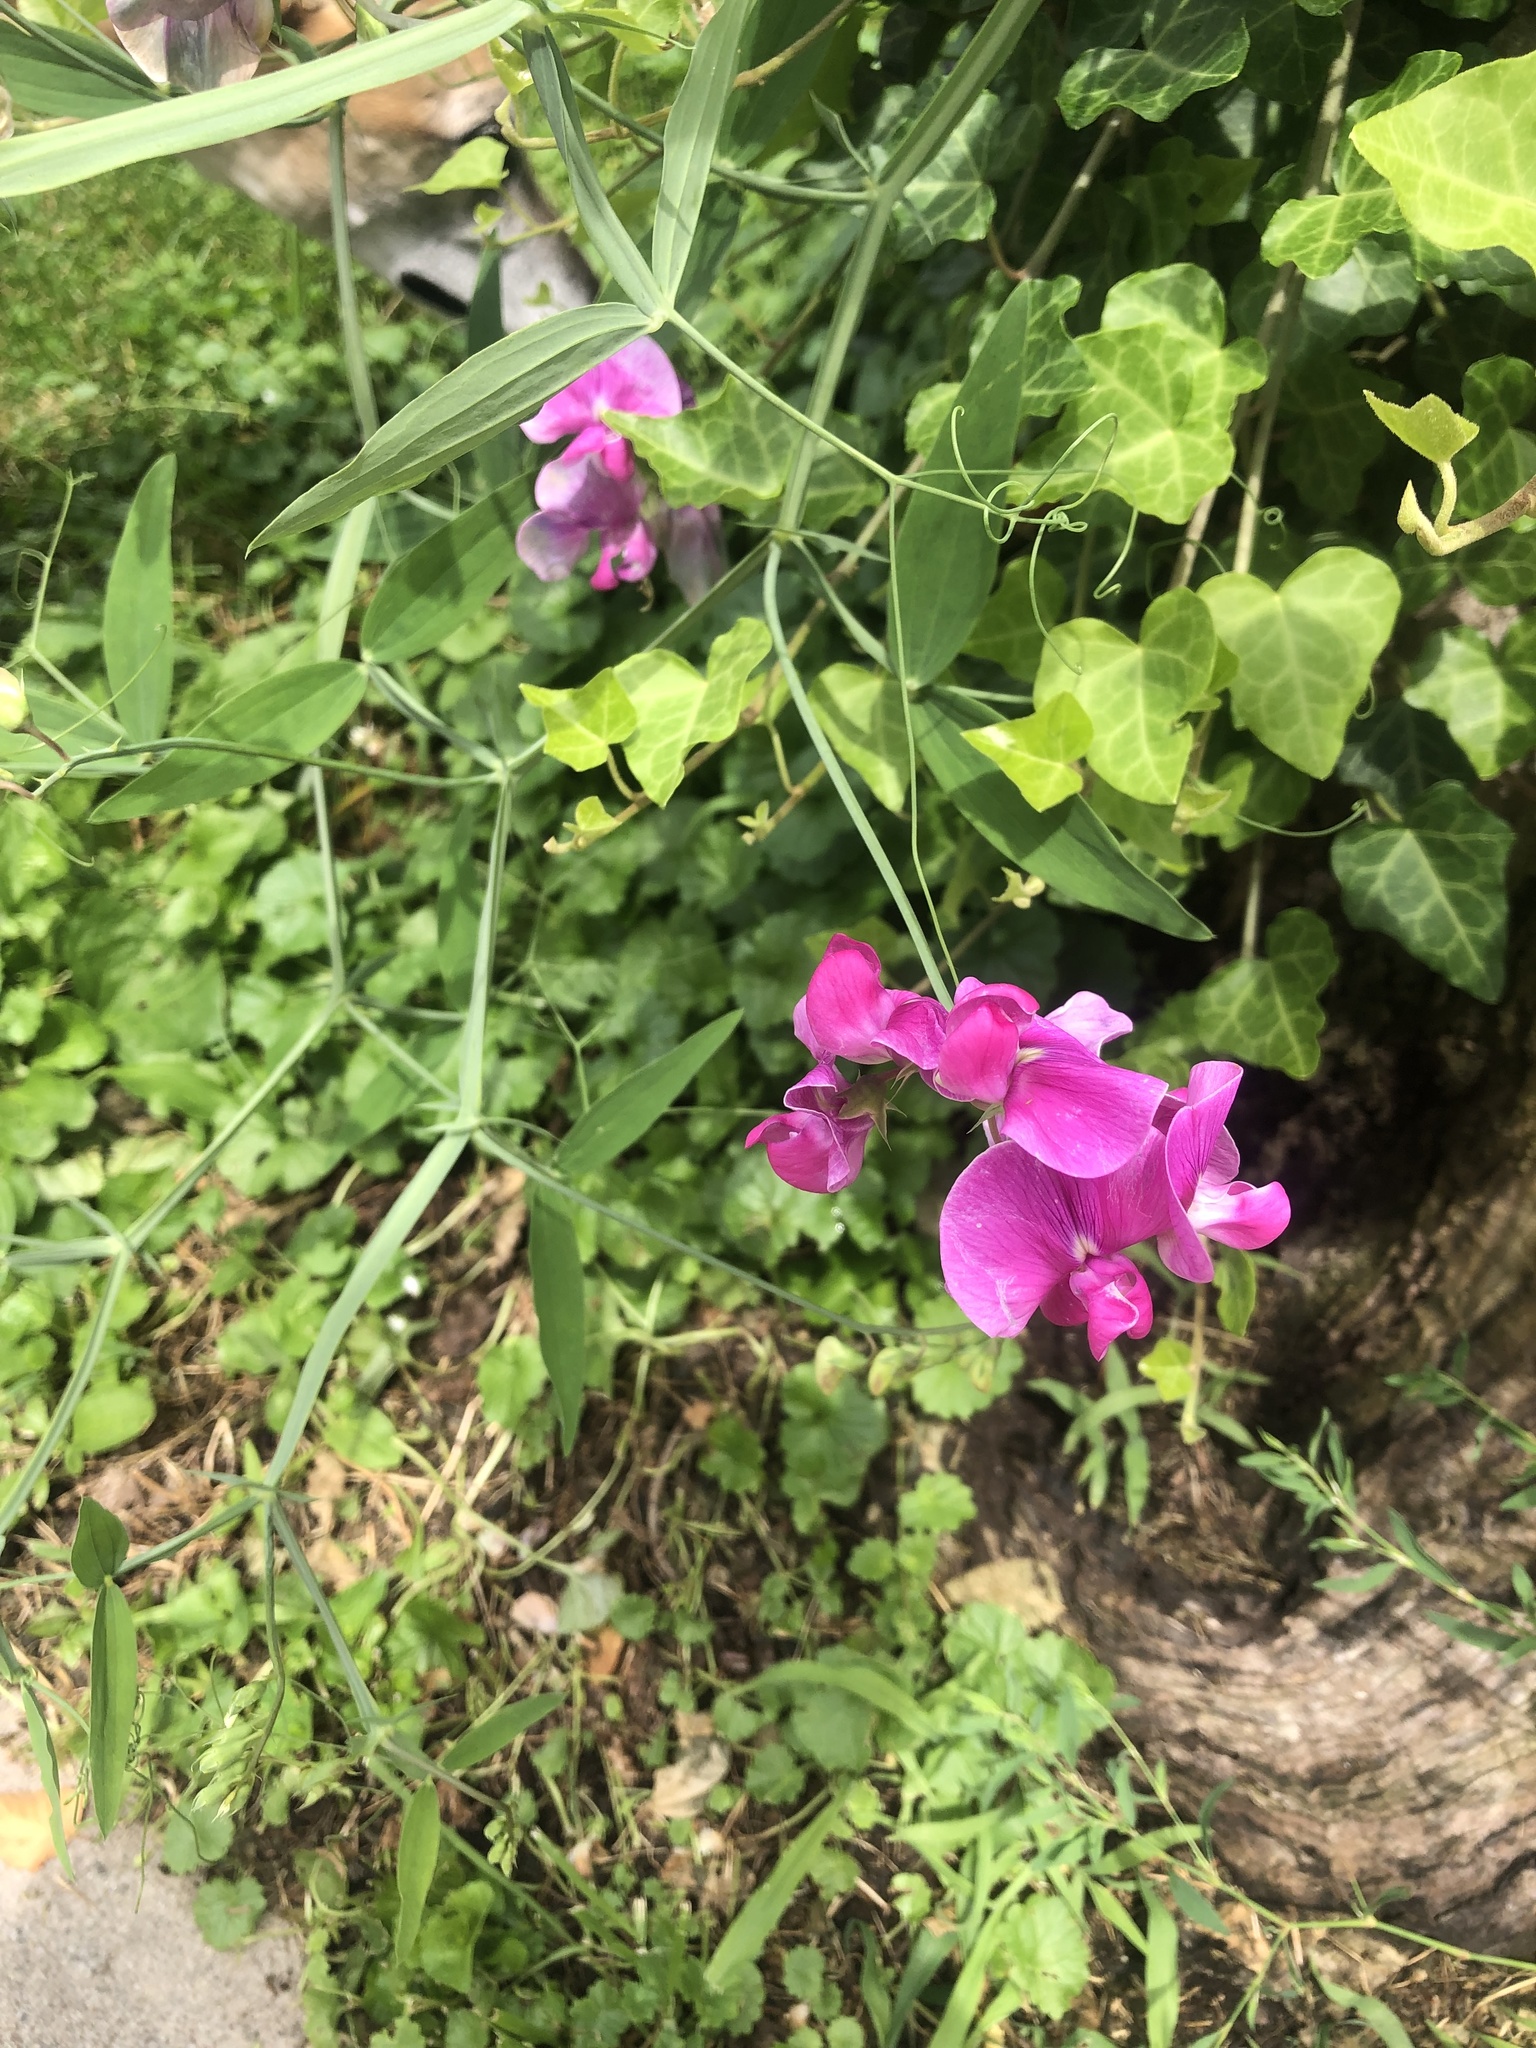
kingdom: Plantae
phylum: Tracheophyta
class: Magnoliopsida
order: Fabales
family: Fabaceae
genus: Lathyrus
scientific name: Lathyrus latifolius
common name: Perennial pea
